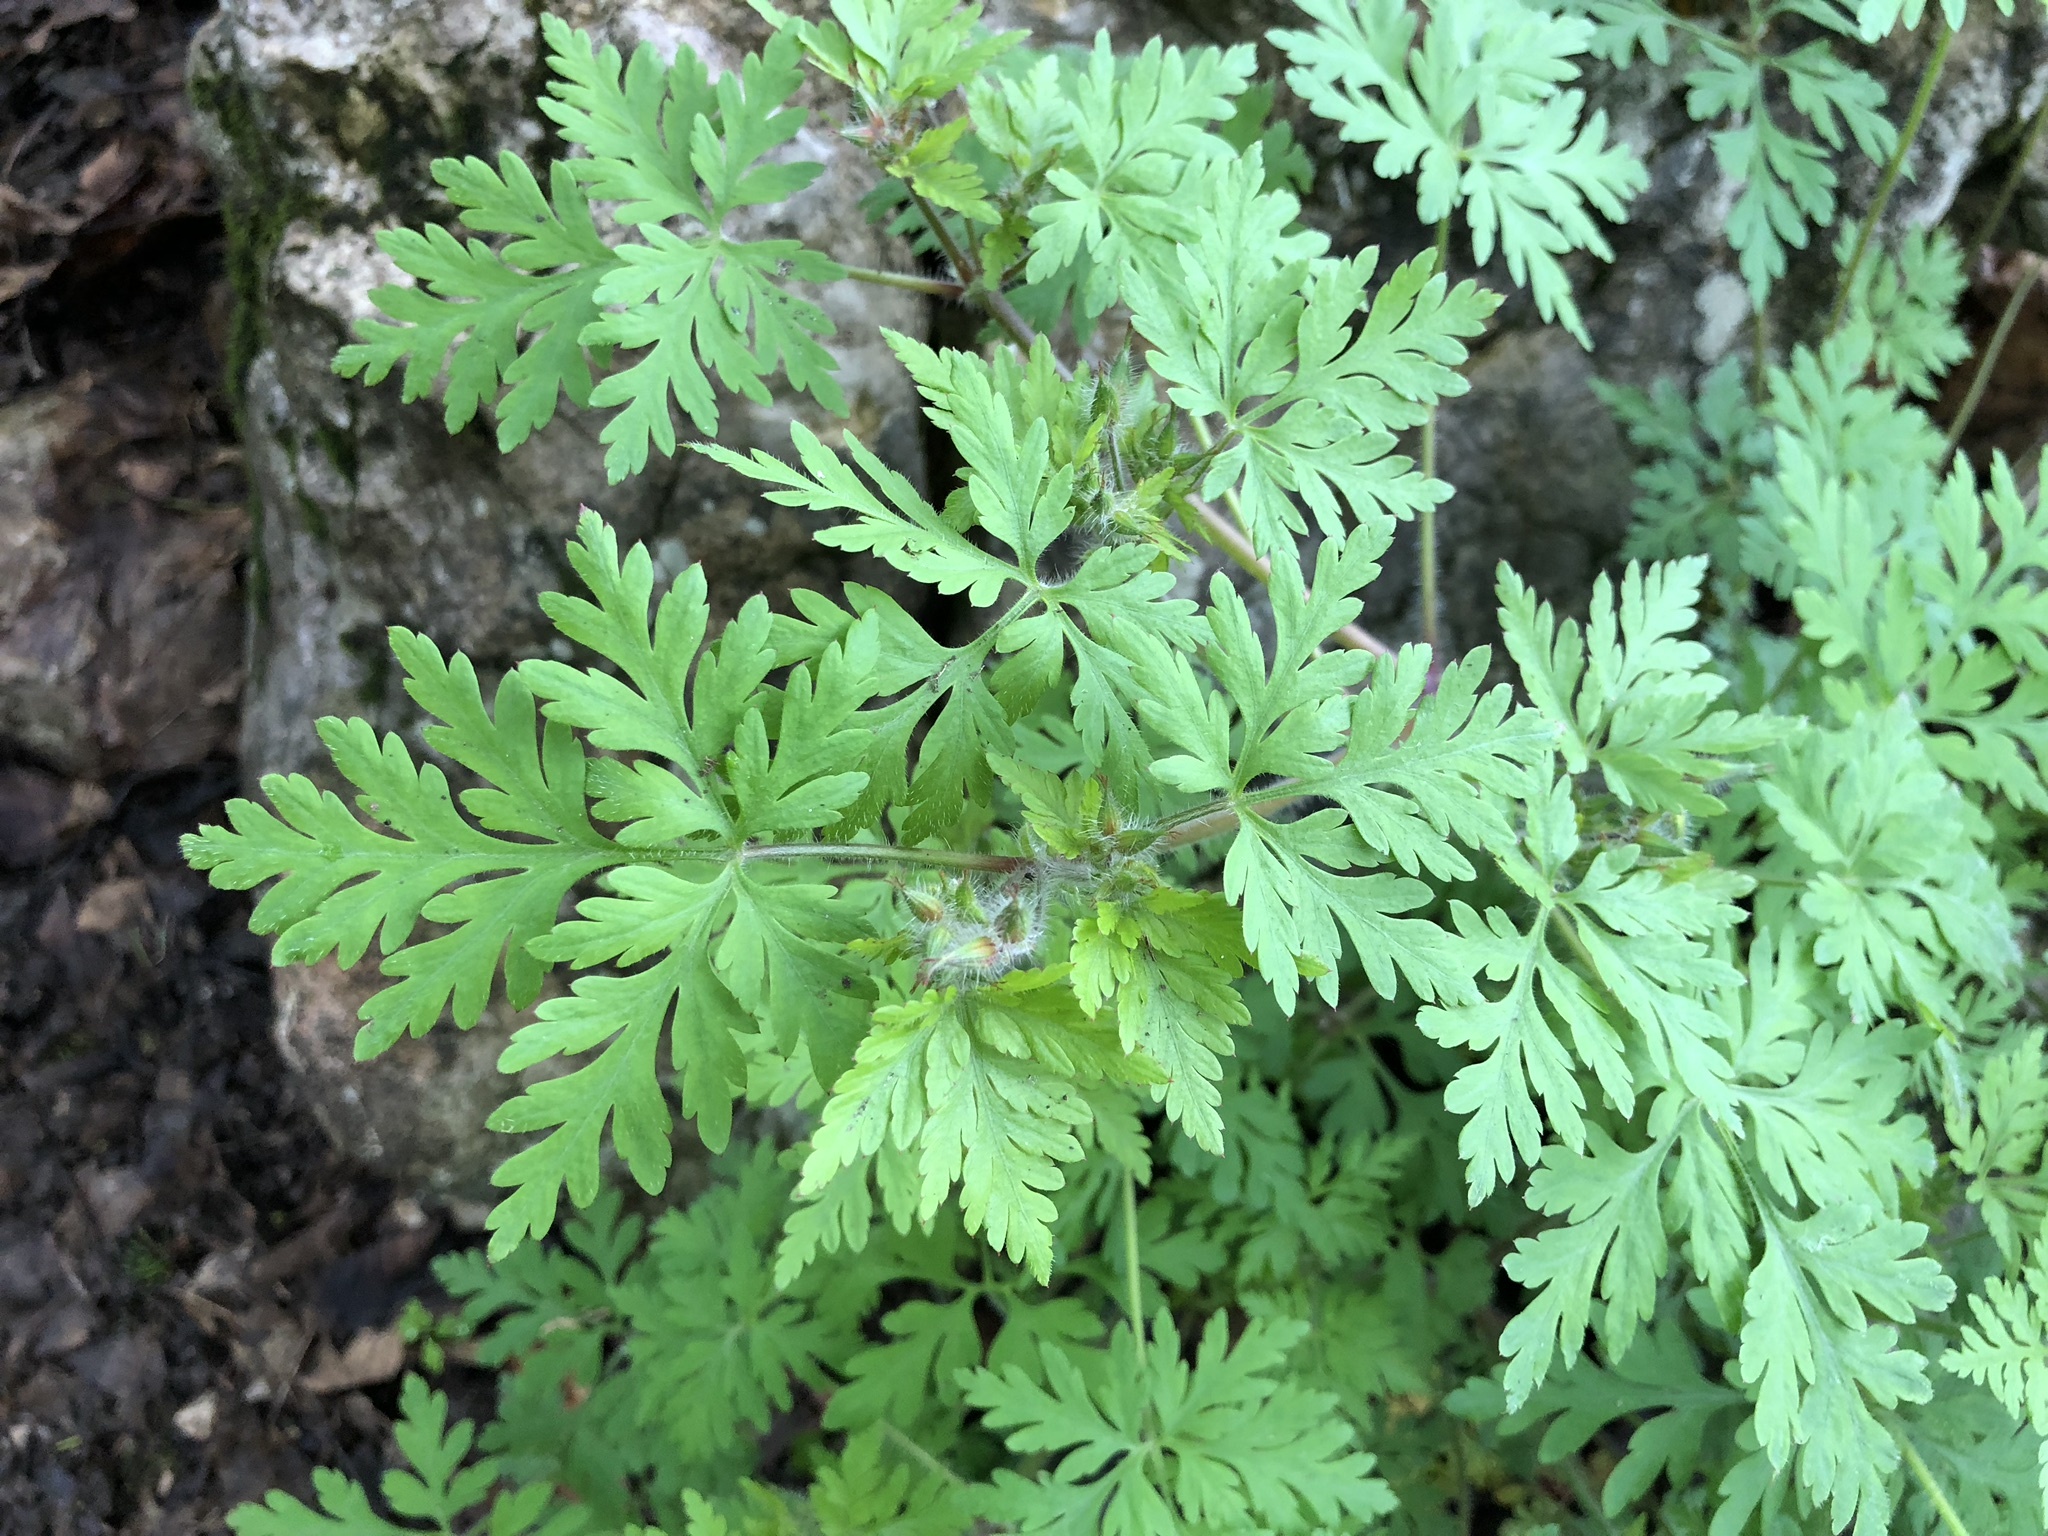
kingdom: Plantae
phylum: Tracheophyta
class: Magnoliopsida
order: Geraniales
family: Geraniaceae
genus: Geranium
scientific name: Geranium robertianum
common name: Herb-robert
